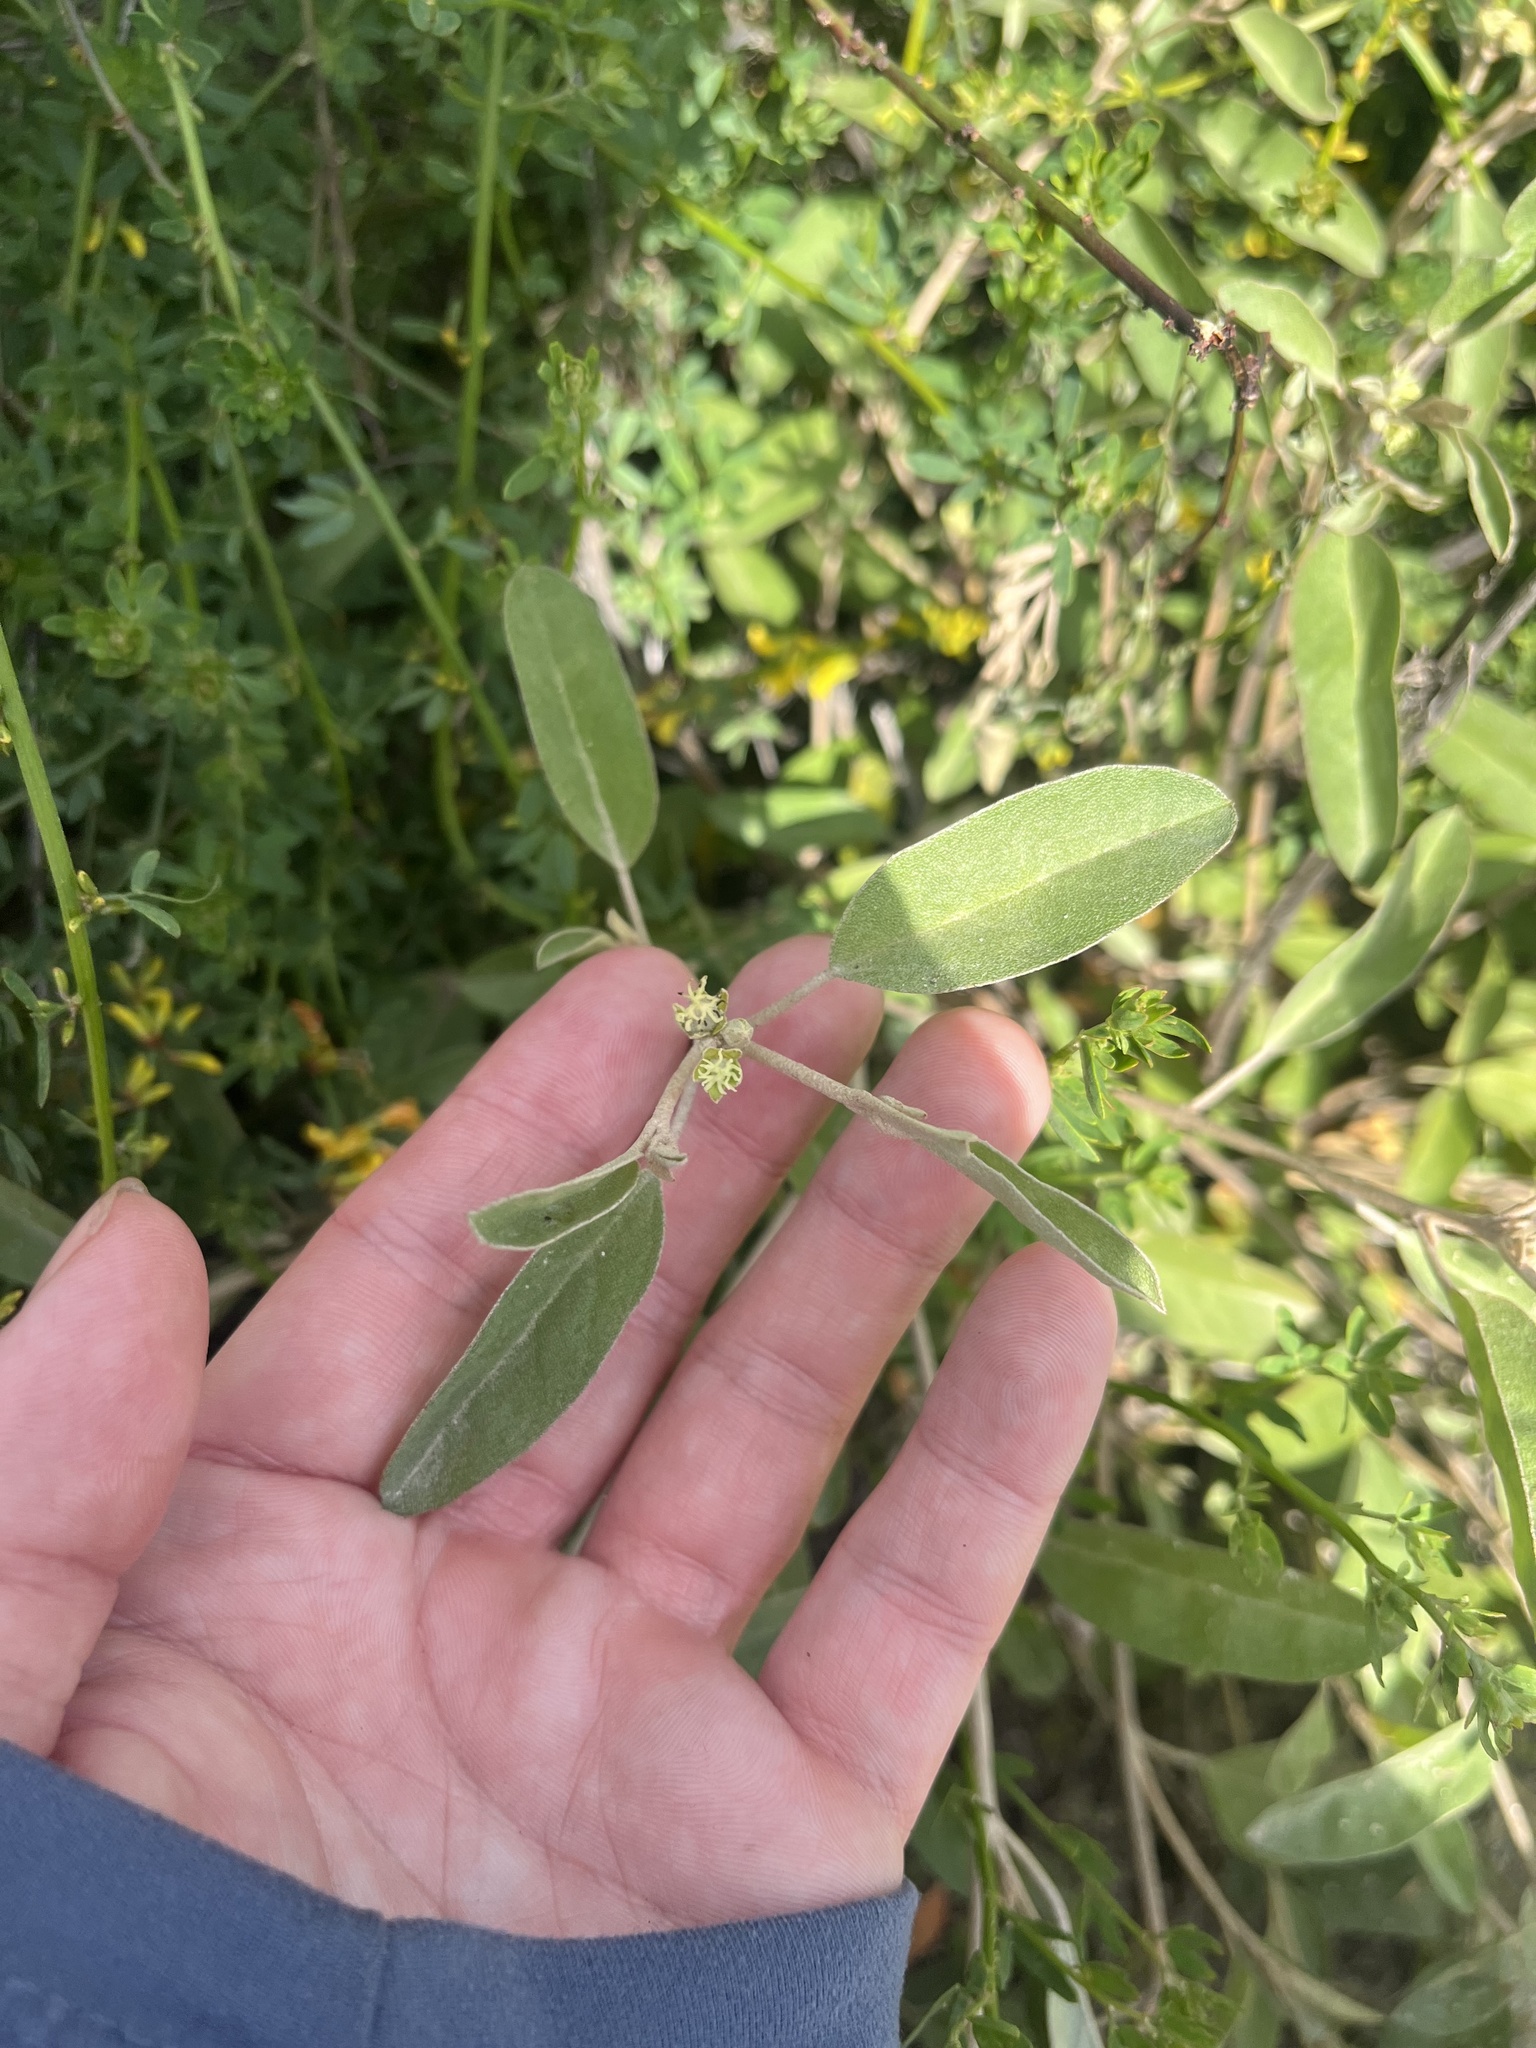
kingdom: Plantae
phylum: Tracheophyta
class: Magnoliopsida
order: Malpighiales
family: Euphorbiaceae
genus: Croton
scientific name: Croton californicus
